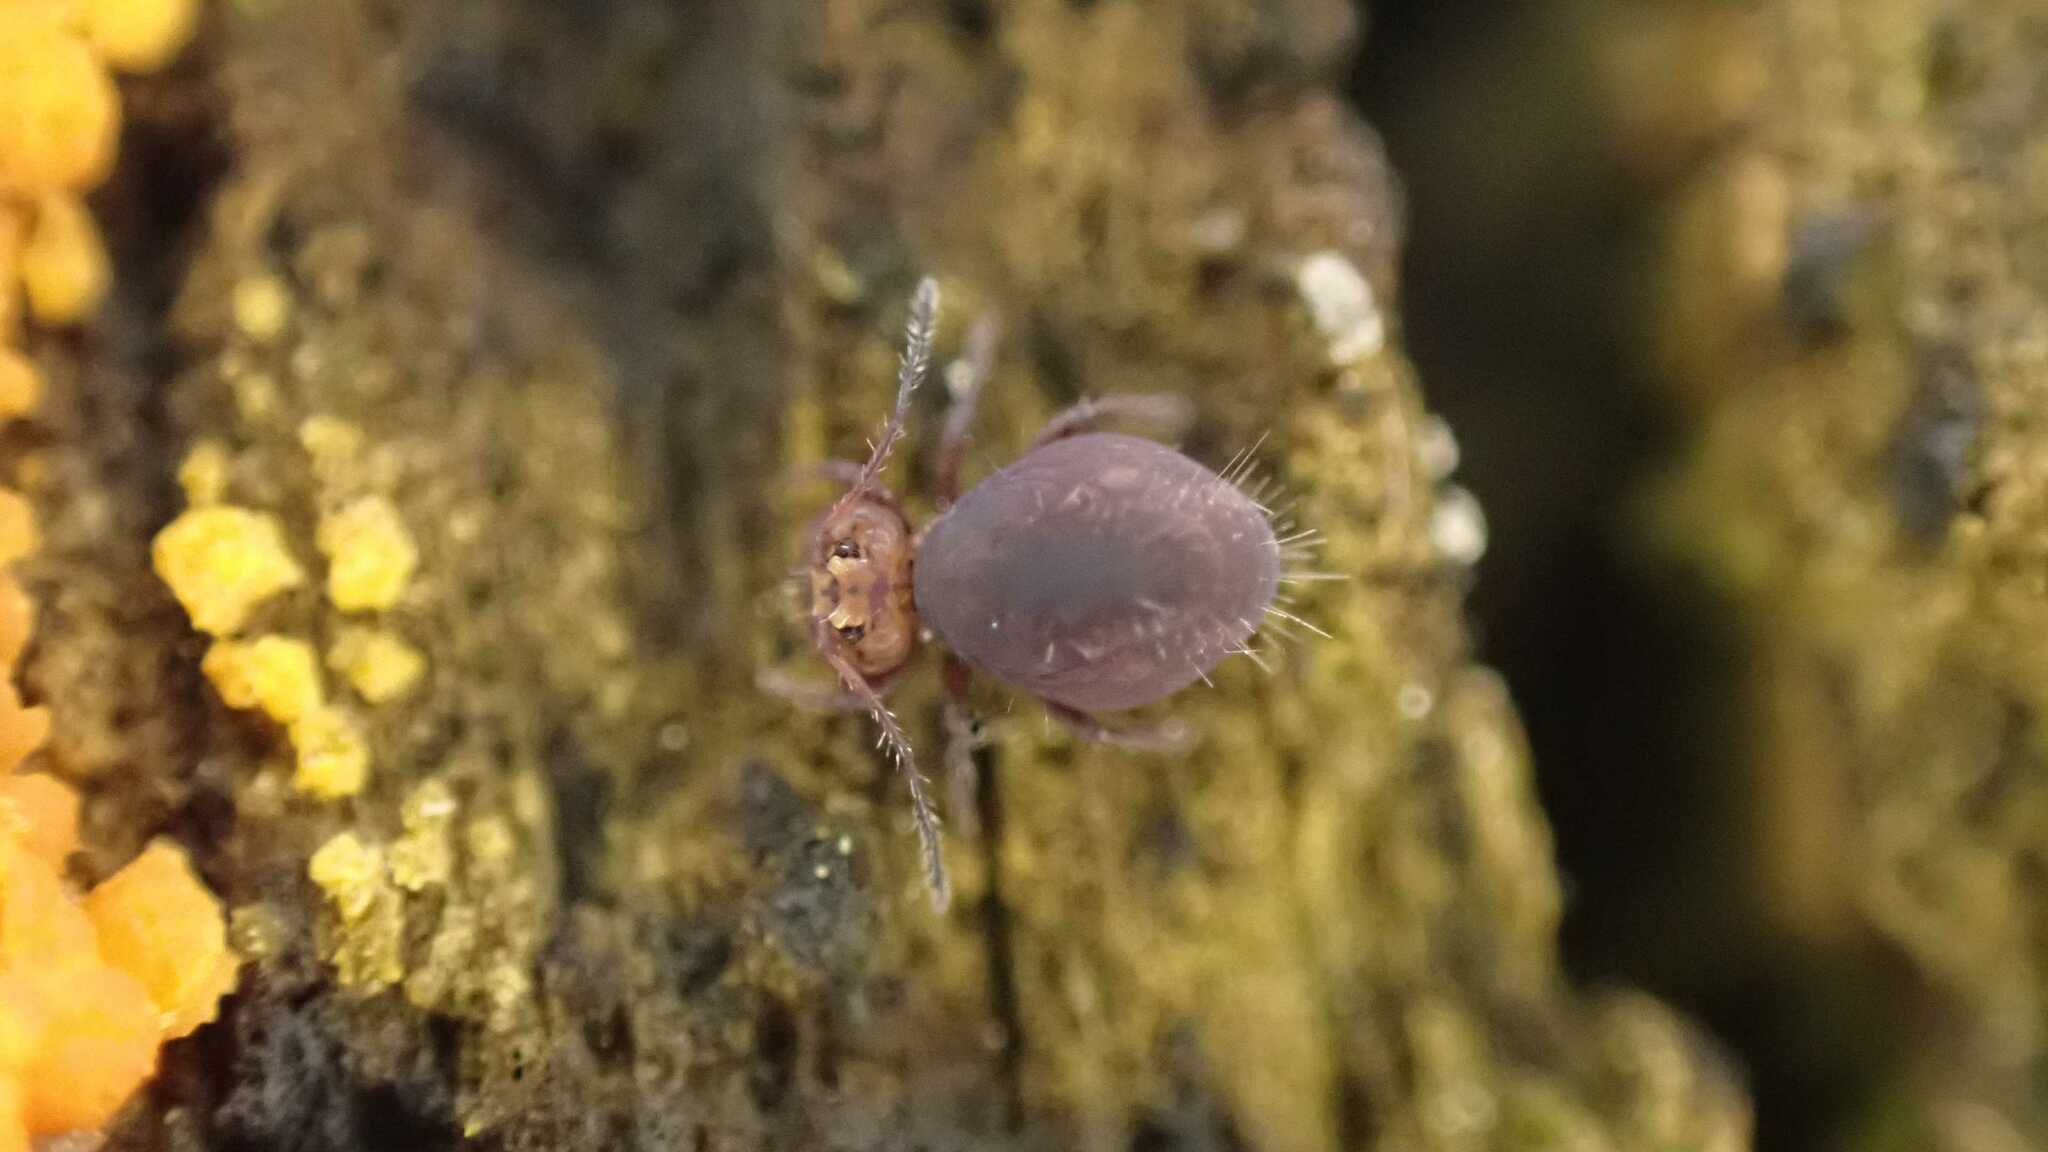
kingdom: Animalia
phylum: Arthropoda
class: Collembola
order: Symphypleona
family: Dicyrtomidae
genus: Dicyrtoma
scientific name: Dicyrtoma fusca
